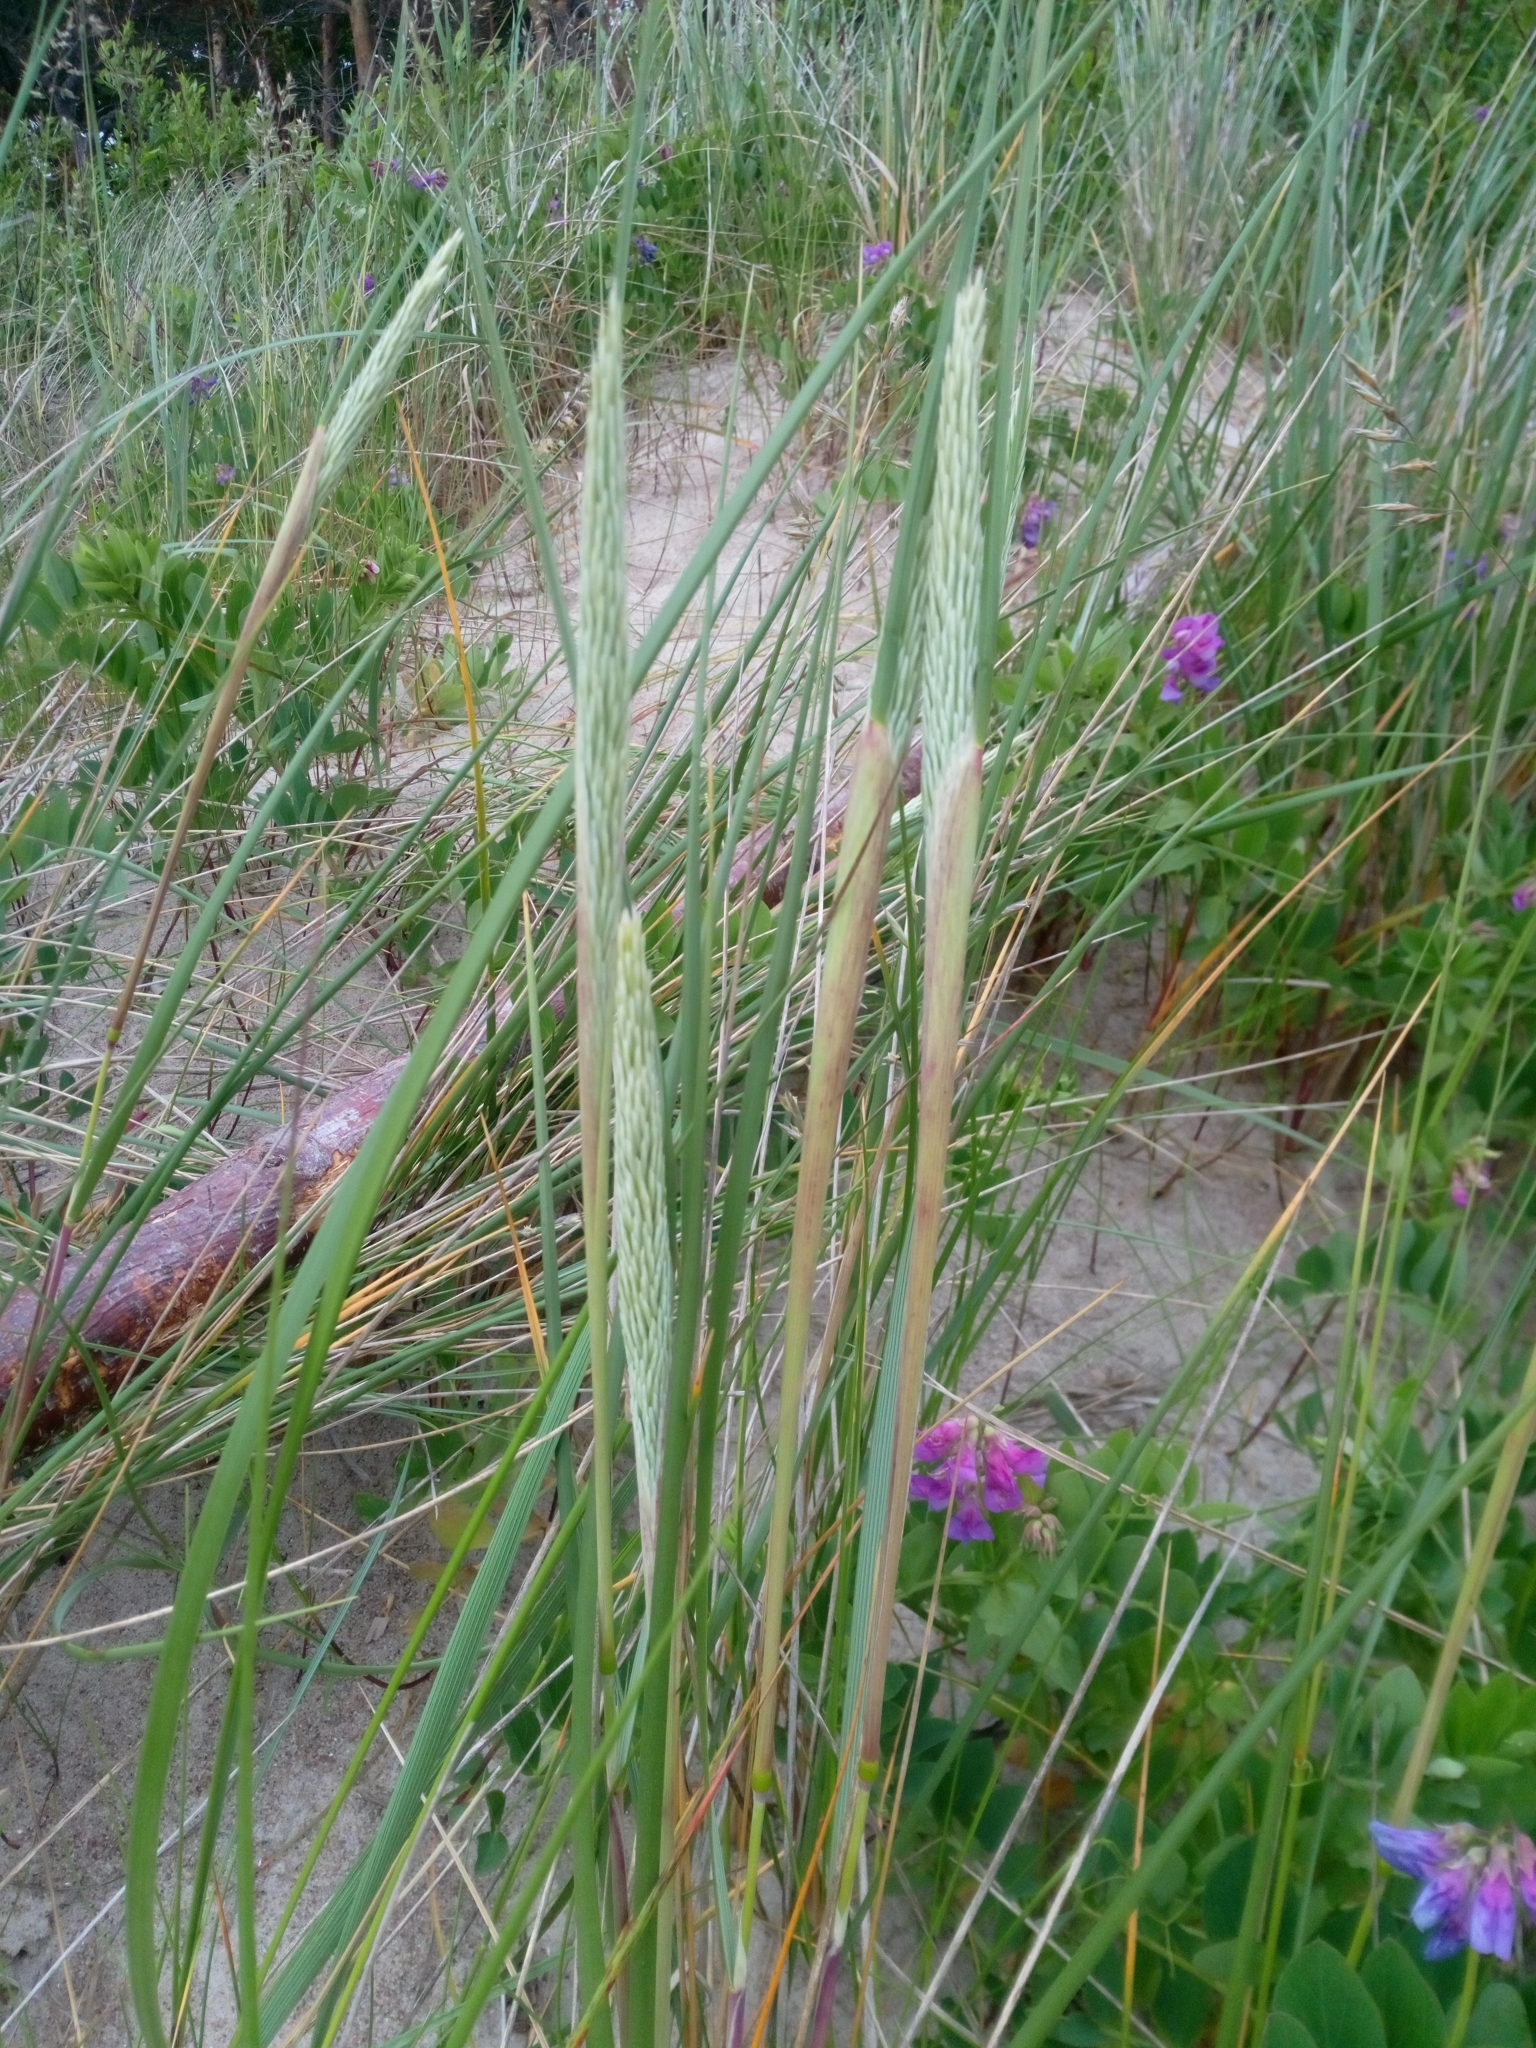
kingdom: Plantae
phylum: Tracheophyta
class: Liliopsida
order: Poales
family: Poaceae
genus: Calamagrostis
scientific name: Calamagrostis arenaria
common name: European beachgrass
